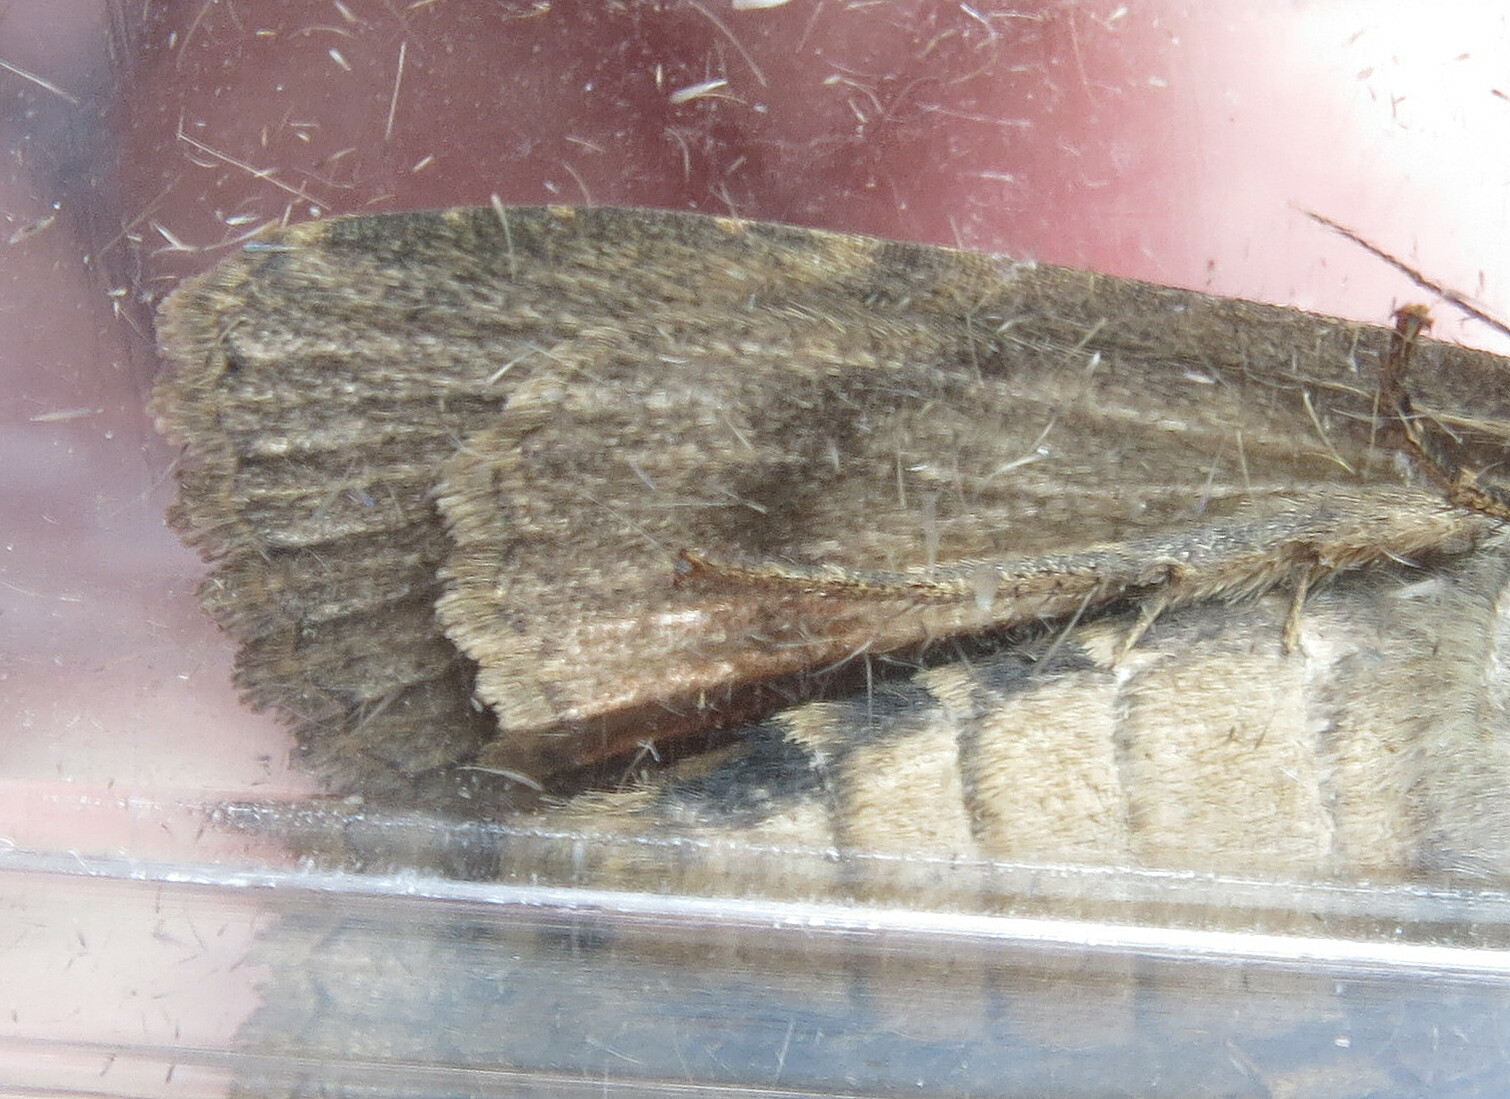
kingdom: Animalia
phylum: Arthropoda
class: Insecta
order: Lepidoptera
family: Noctuidae
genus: Amphipyra
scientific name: Amphipyra berbera
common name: Svensson's copper underwing
